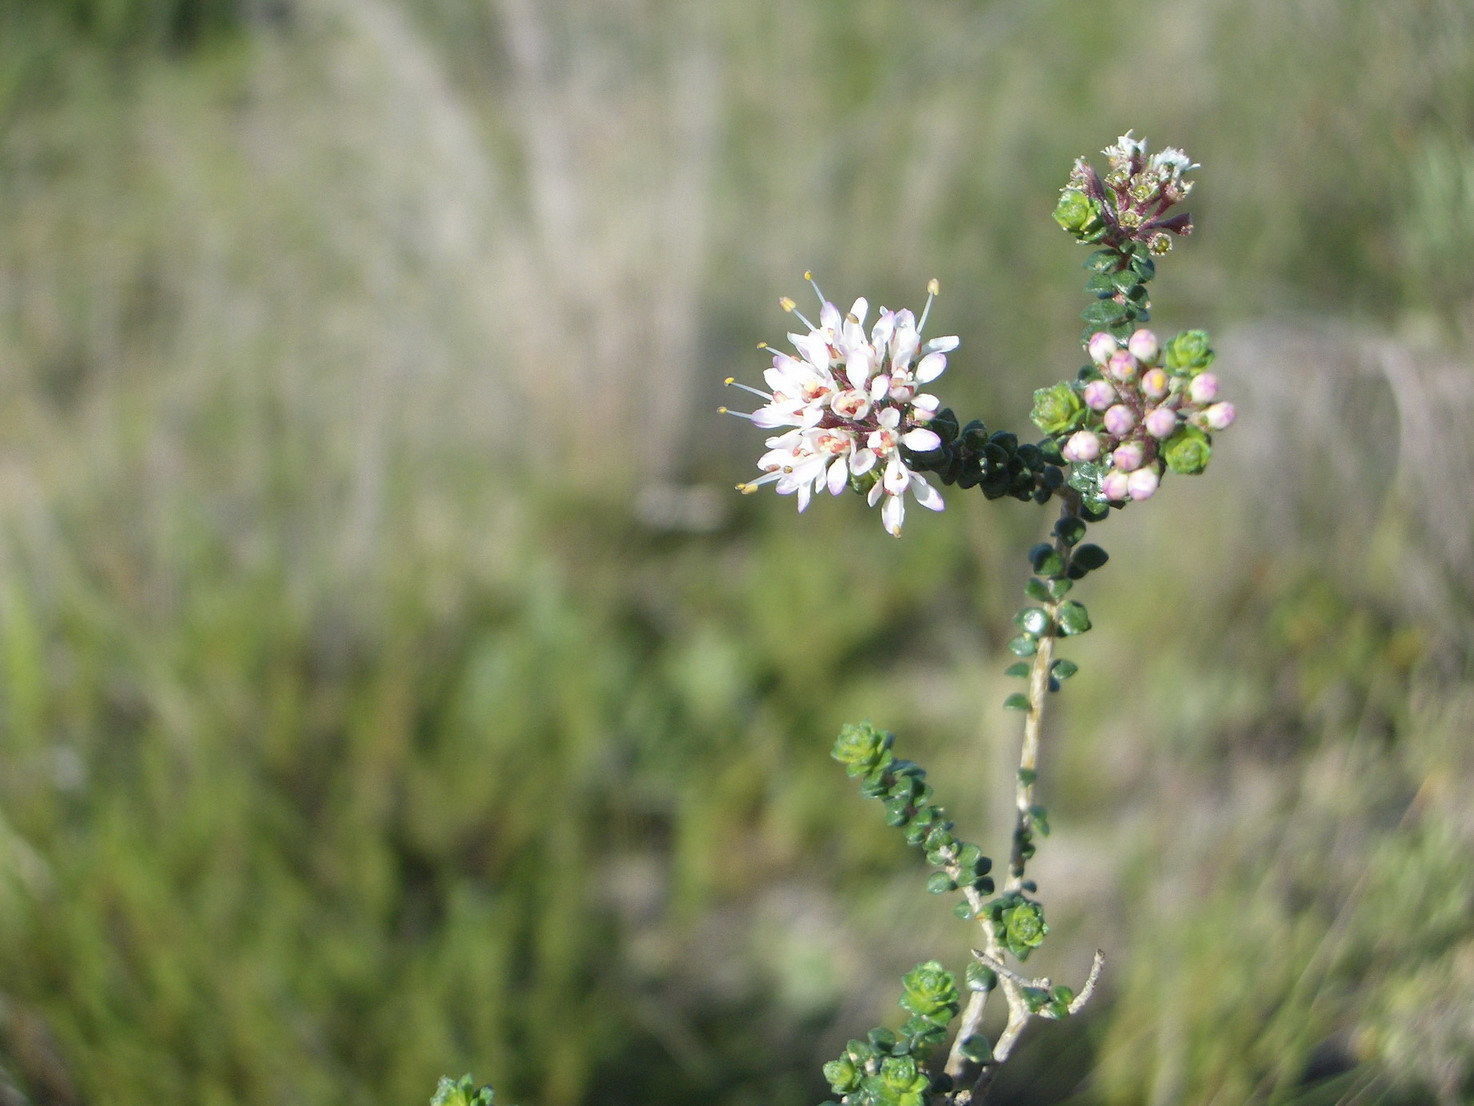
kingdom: Plantae
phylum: Tracheophyta
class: Magnoliopsida
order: Sapindales
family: Rutaceae
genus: Agathosma
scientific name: Agathosma muirii
